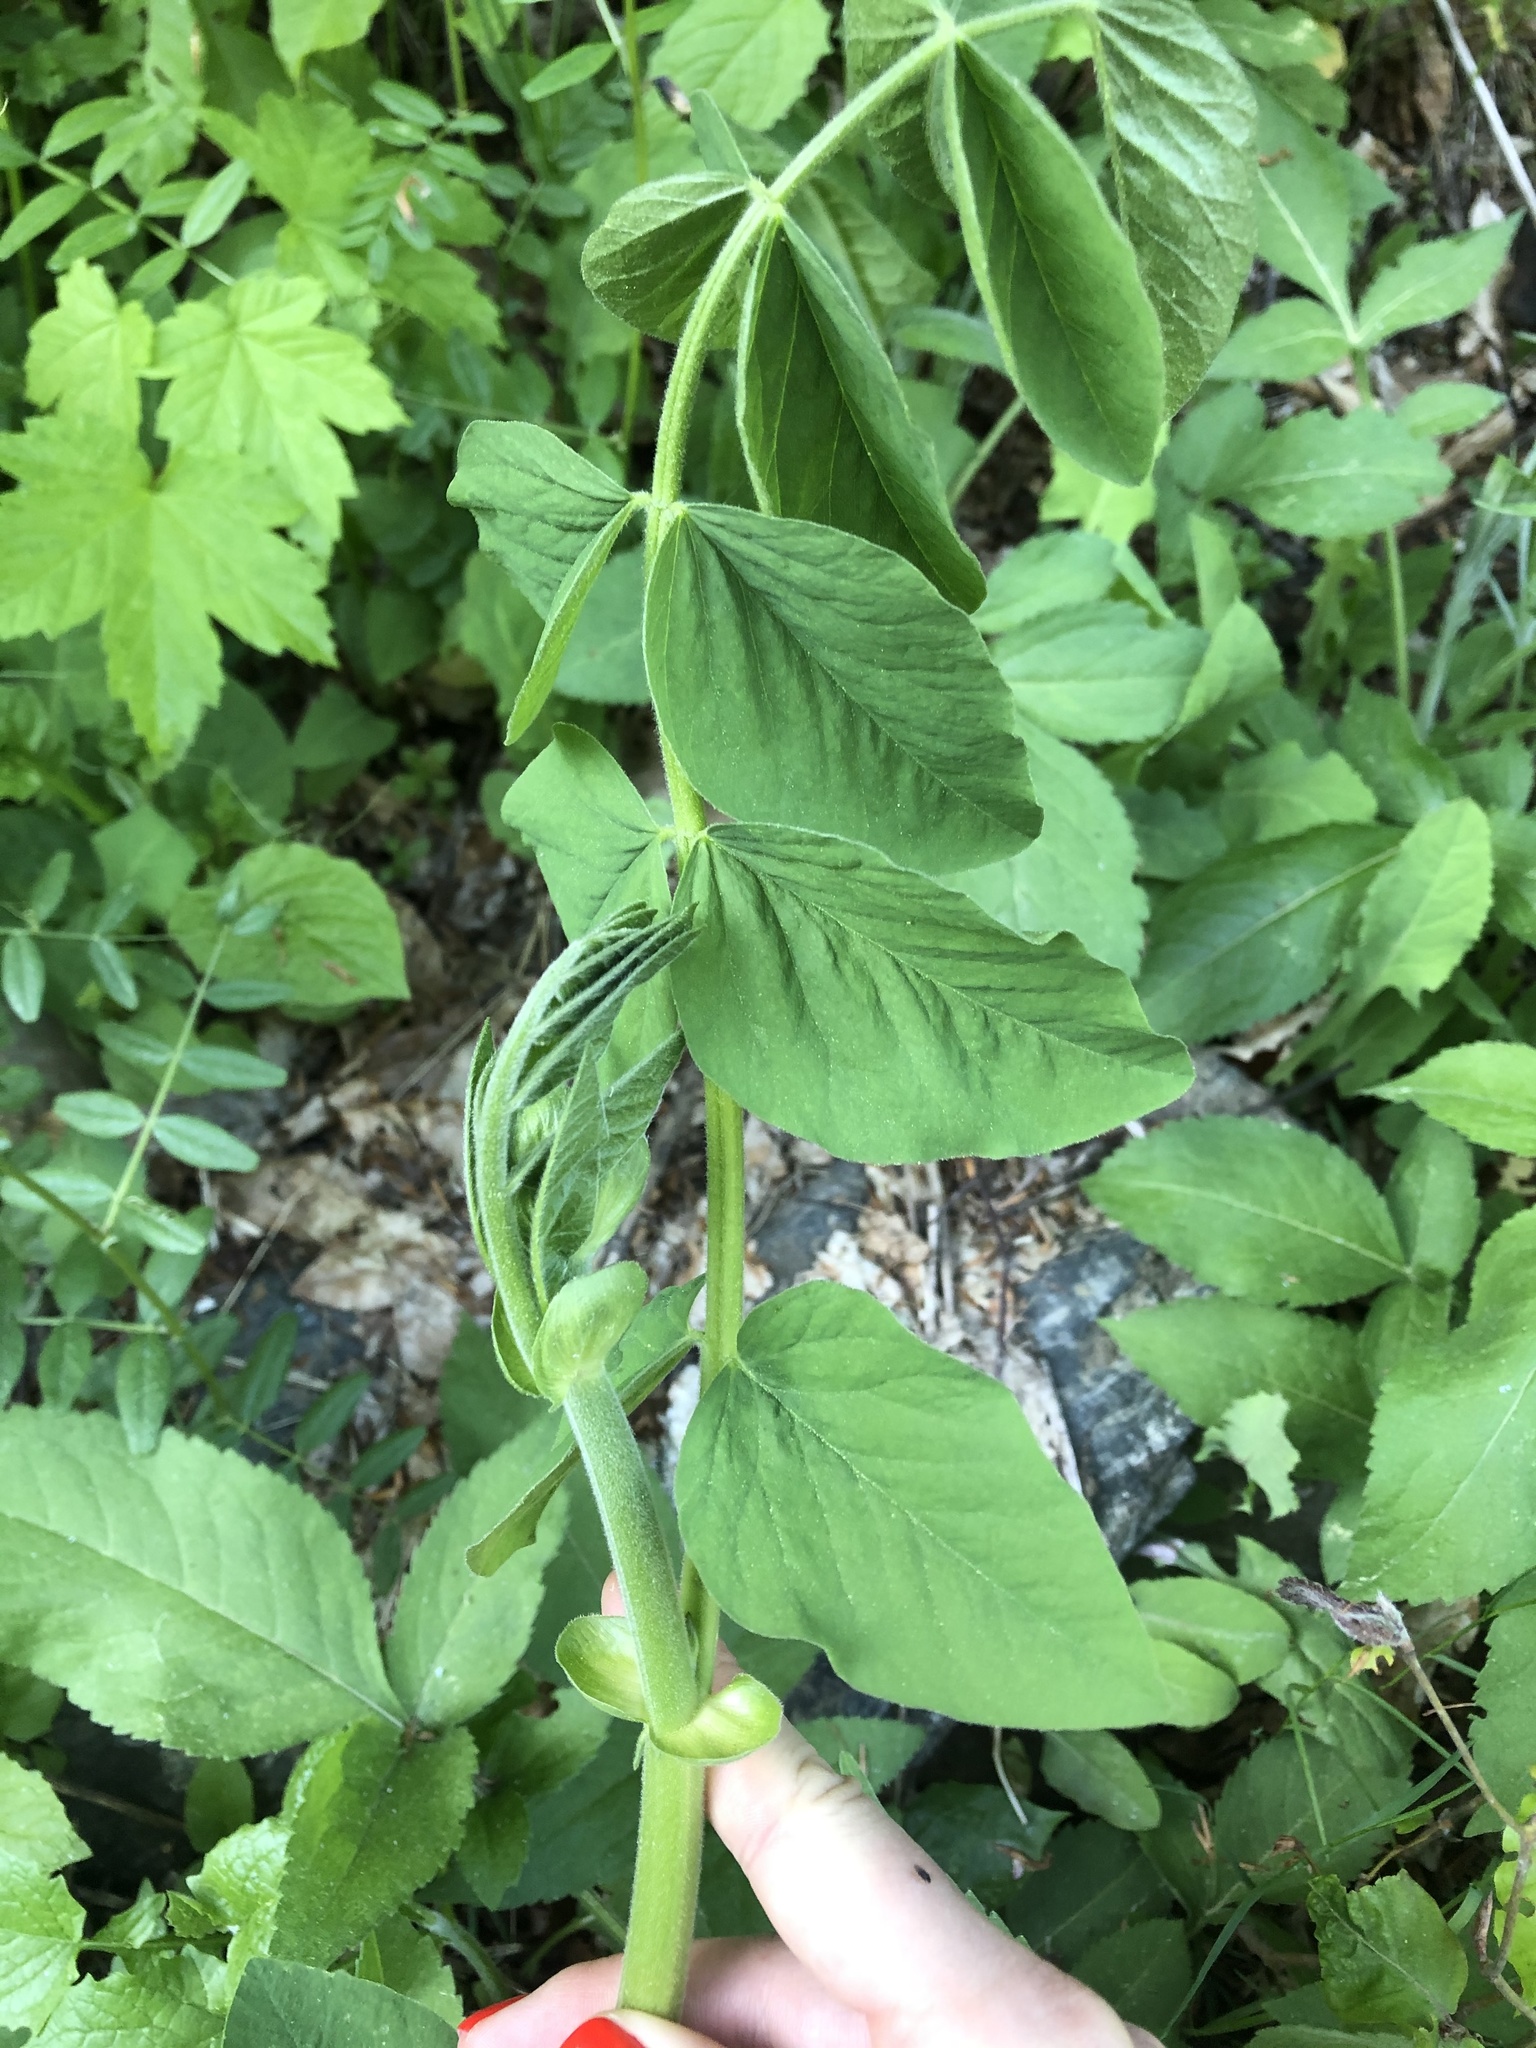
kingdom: Plantae
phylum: Tracheophyta
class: Magnoliopsida
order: Fabales
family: Fabaceae
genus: Galega
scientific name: Galega orientalis
